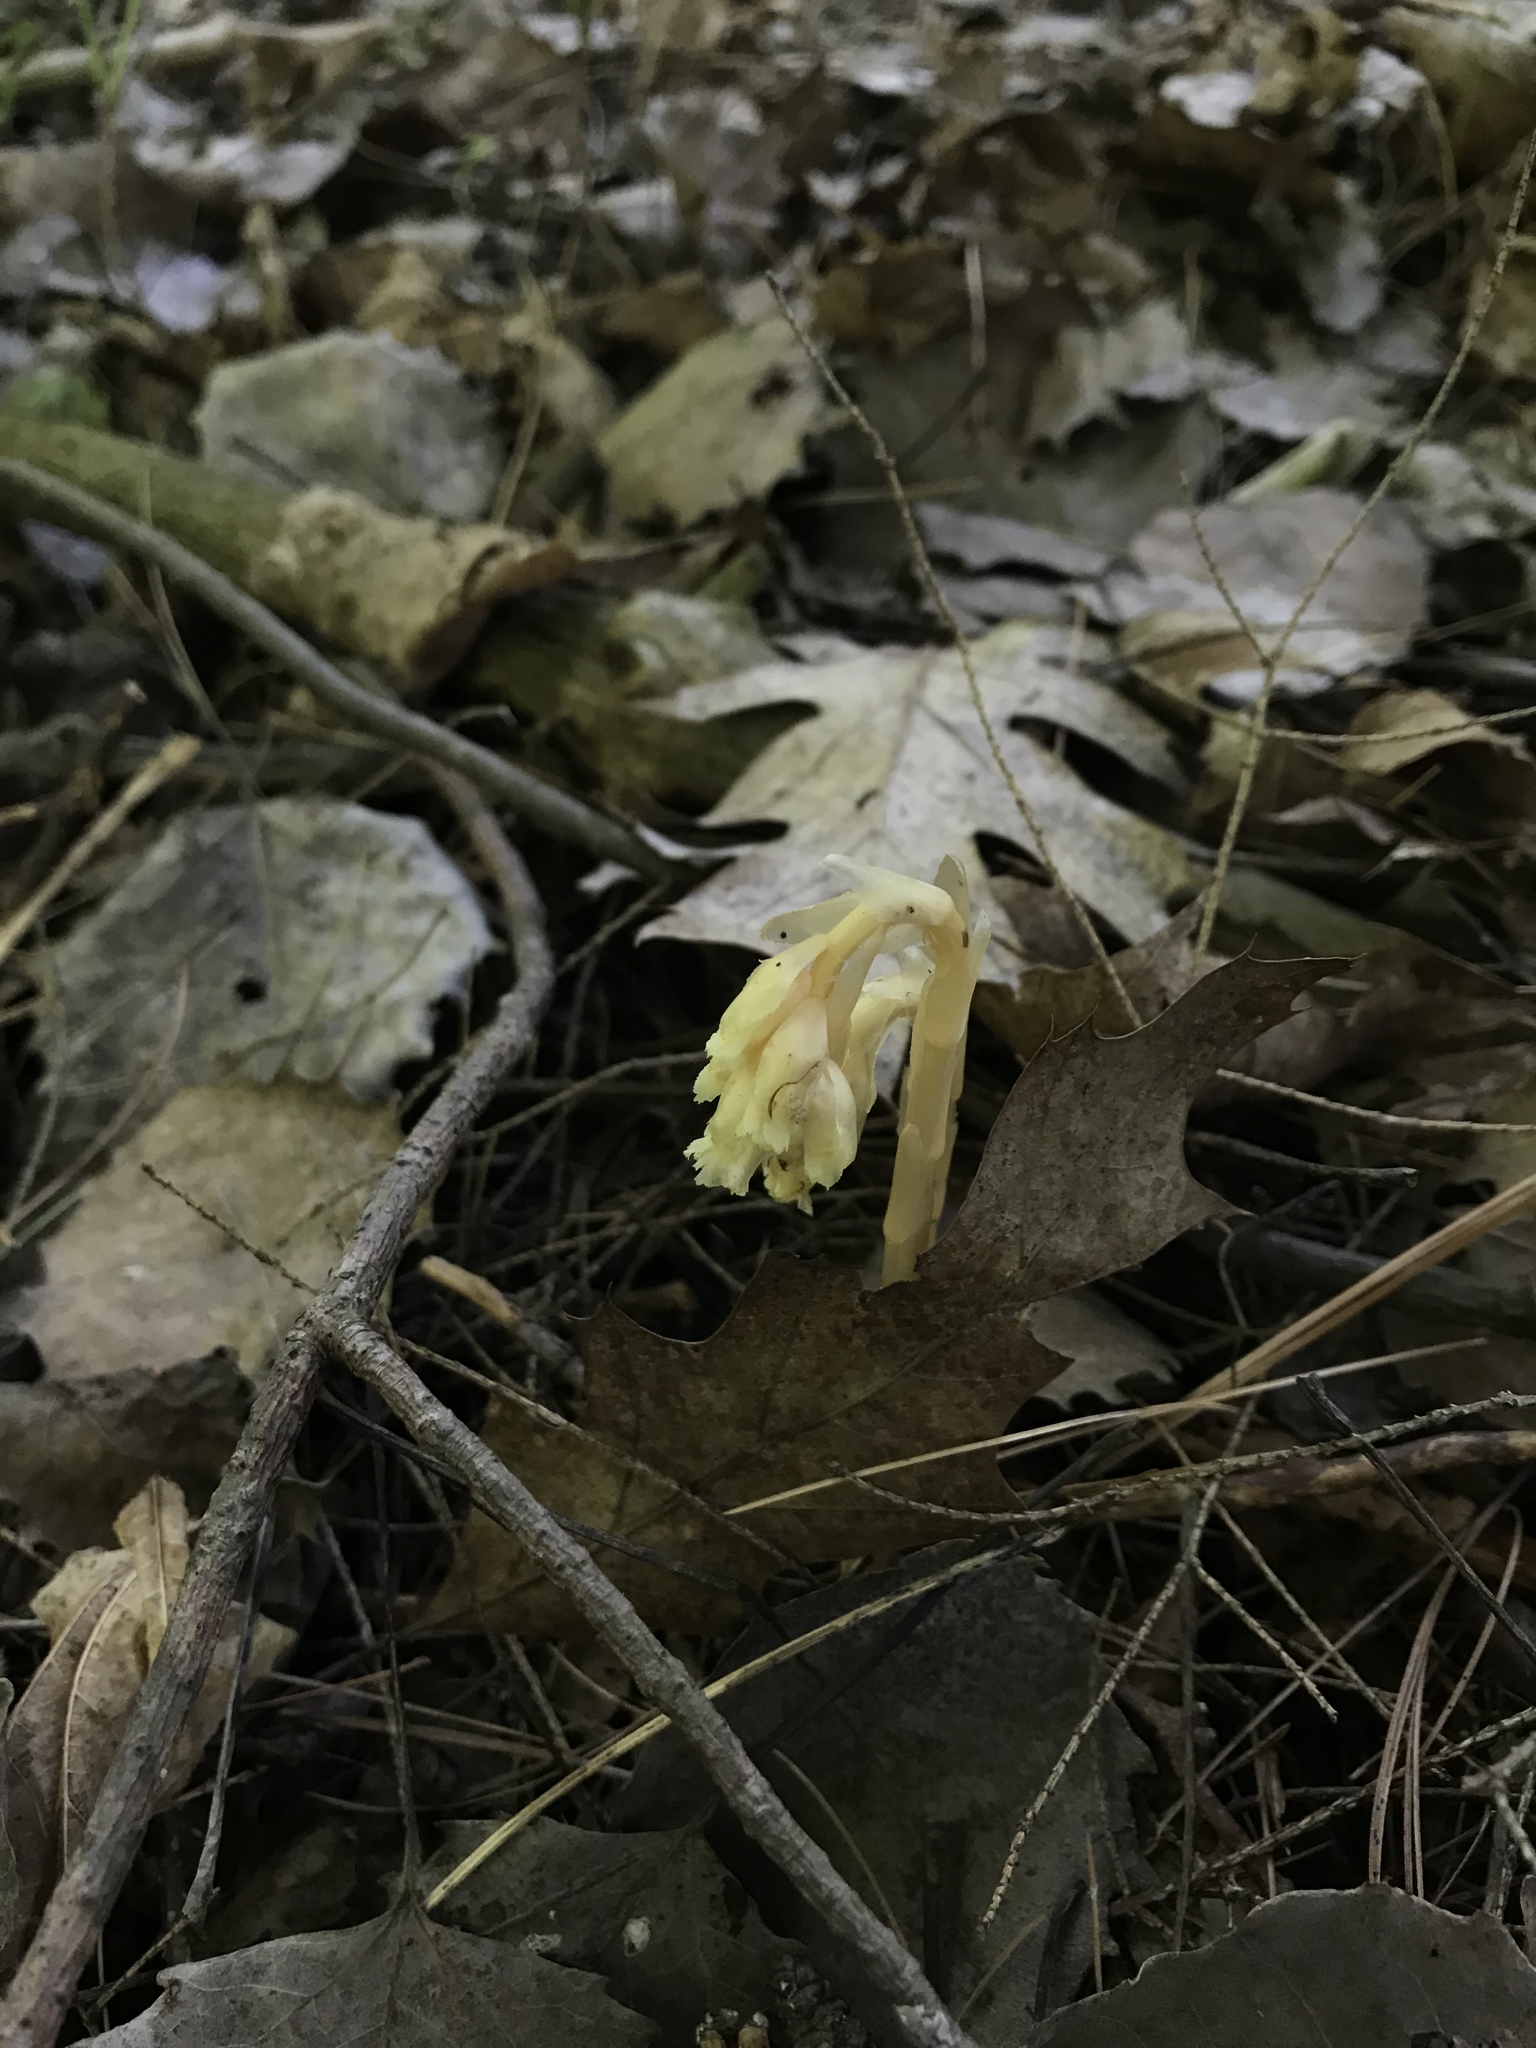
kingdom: Plantae
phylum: Tracheophyta
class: Magnoliopsida
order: Ericales
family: Ericaceae
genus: Hypopitys
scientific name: Hypopitys monotropa
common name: Yellow bird's-nest
